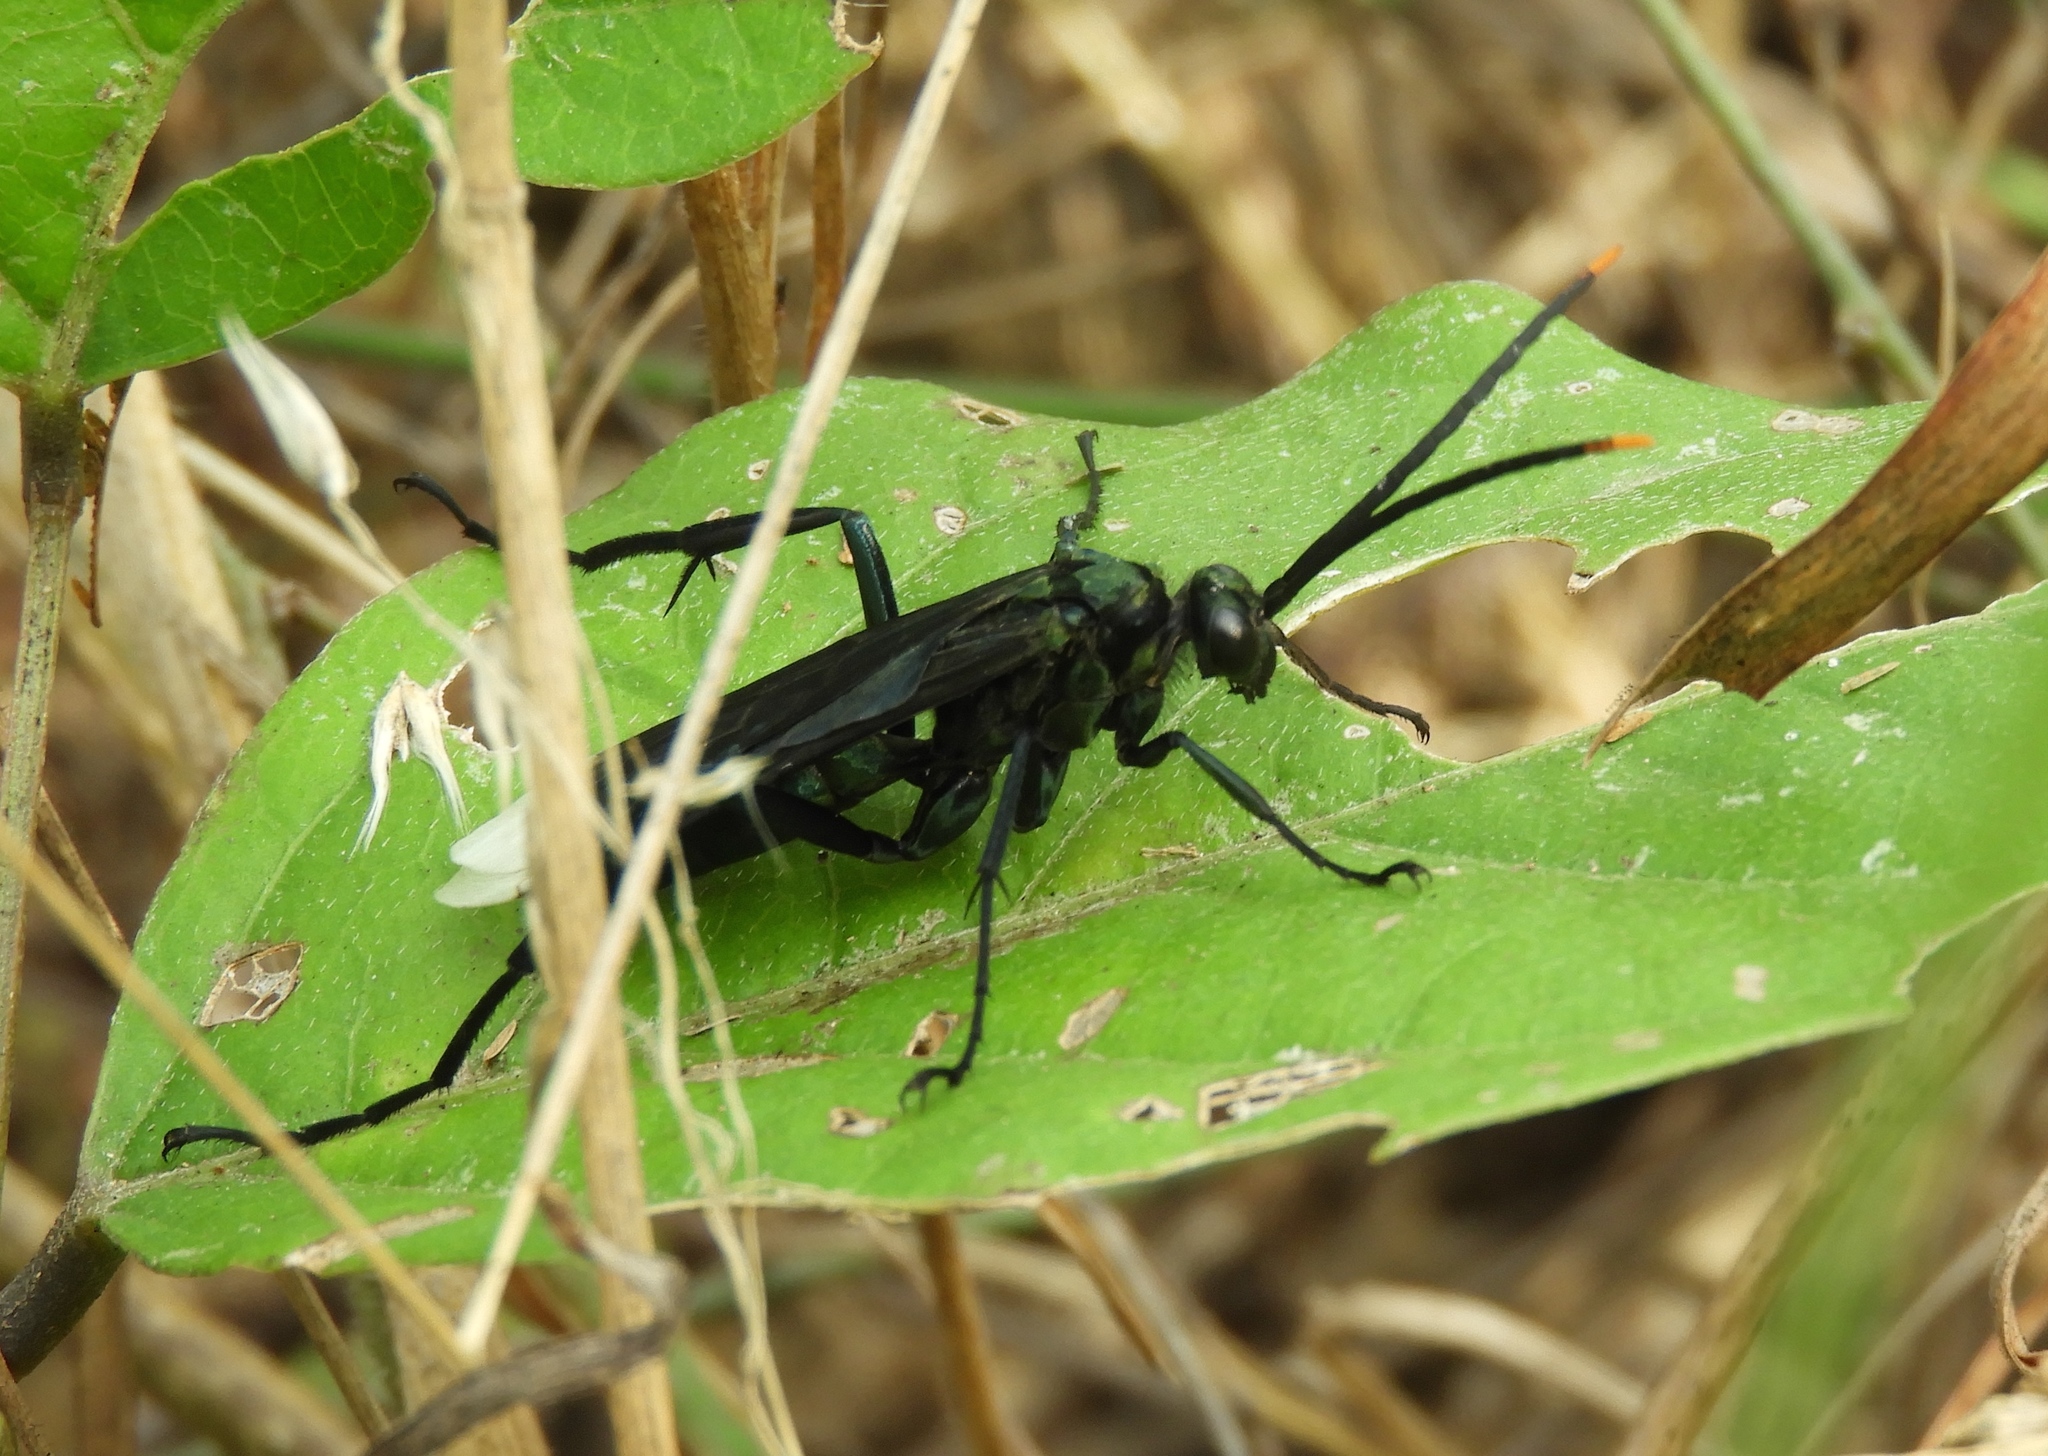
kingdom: Animalia
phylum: Arthropoda
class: Insecta
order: Hymenoptera
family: Pompilidae
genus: Pepsis
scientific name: Pepsis
